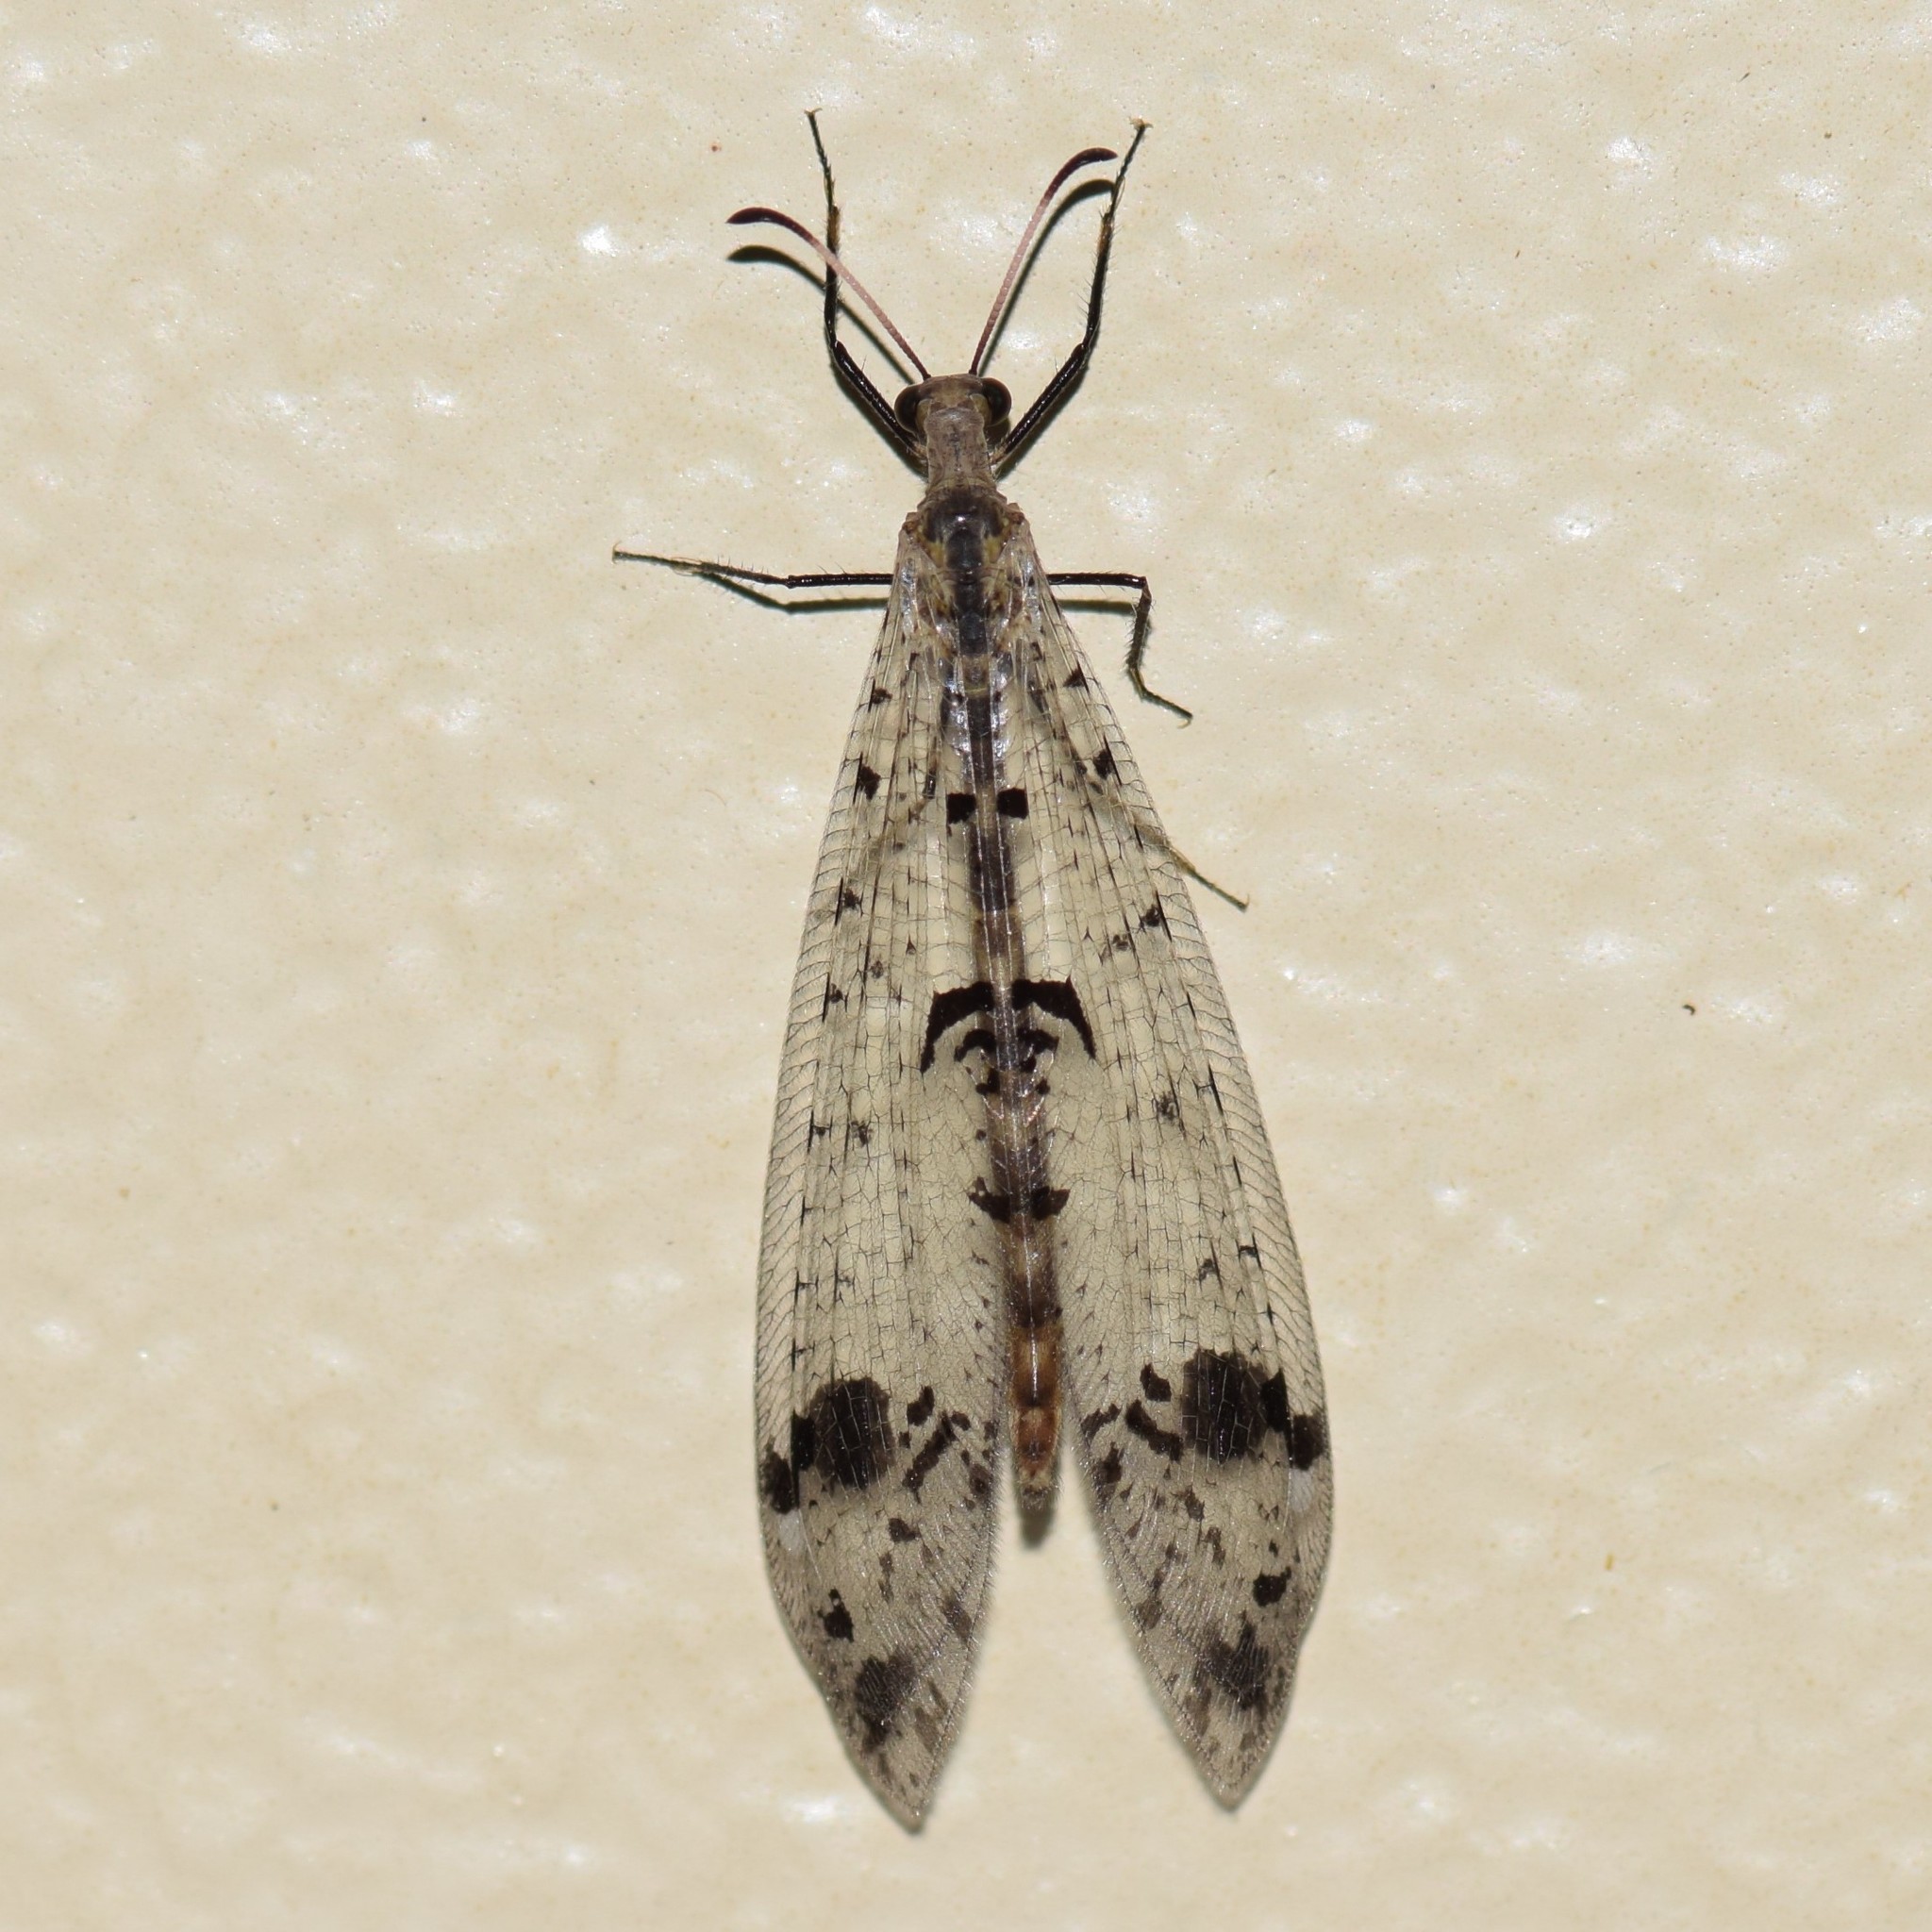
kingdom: Animalia
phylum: Arthropoda
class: Insecta
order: Neuroptera
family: Myrmeleontidae
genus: Dendroleon
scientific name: Dendroleon obsoletus
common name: Eastern spotted-winged antlion
